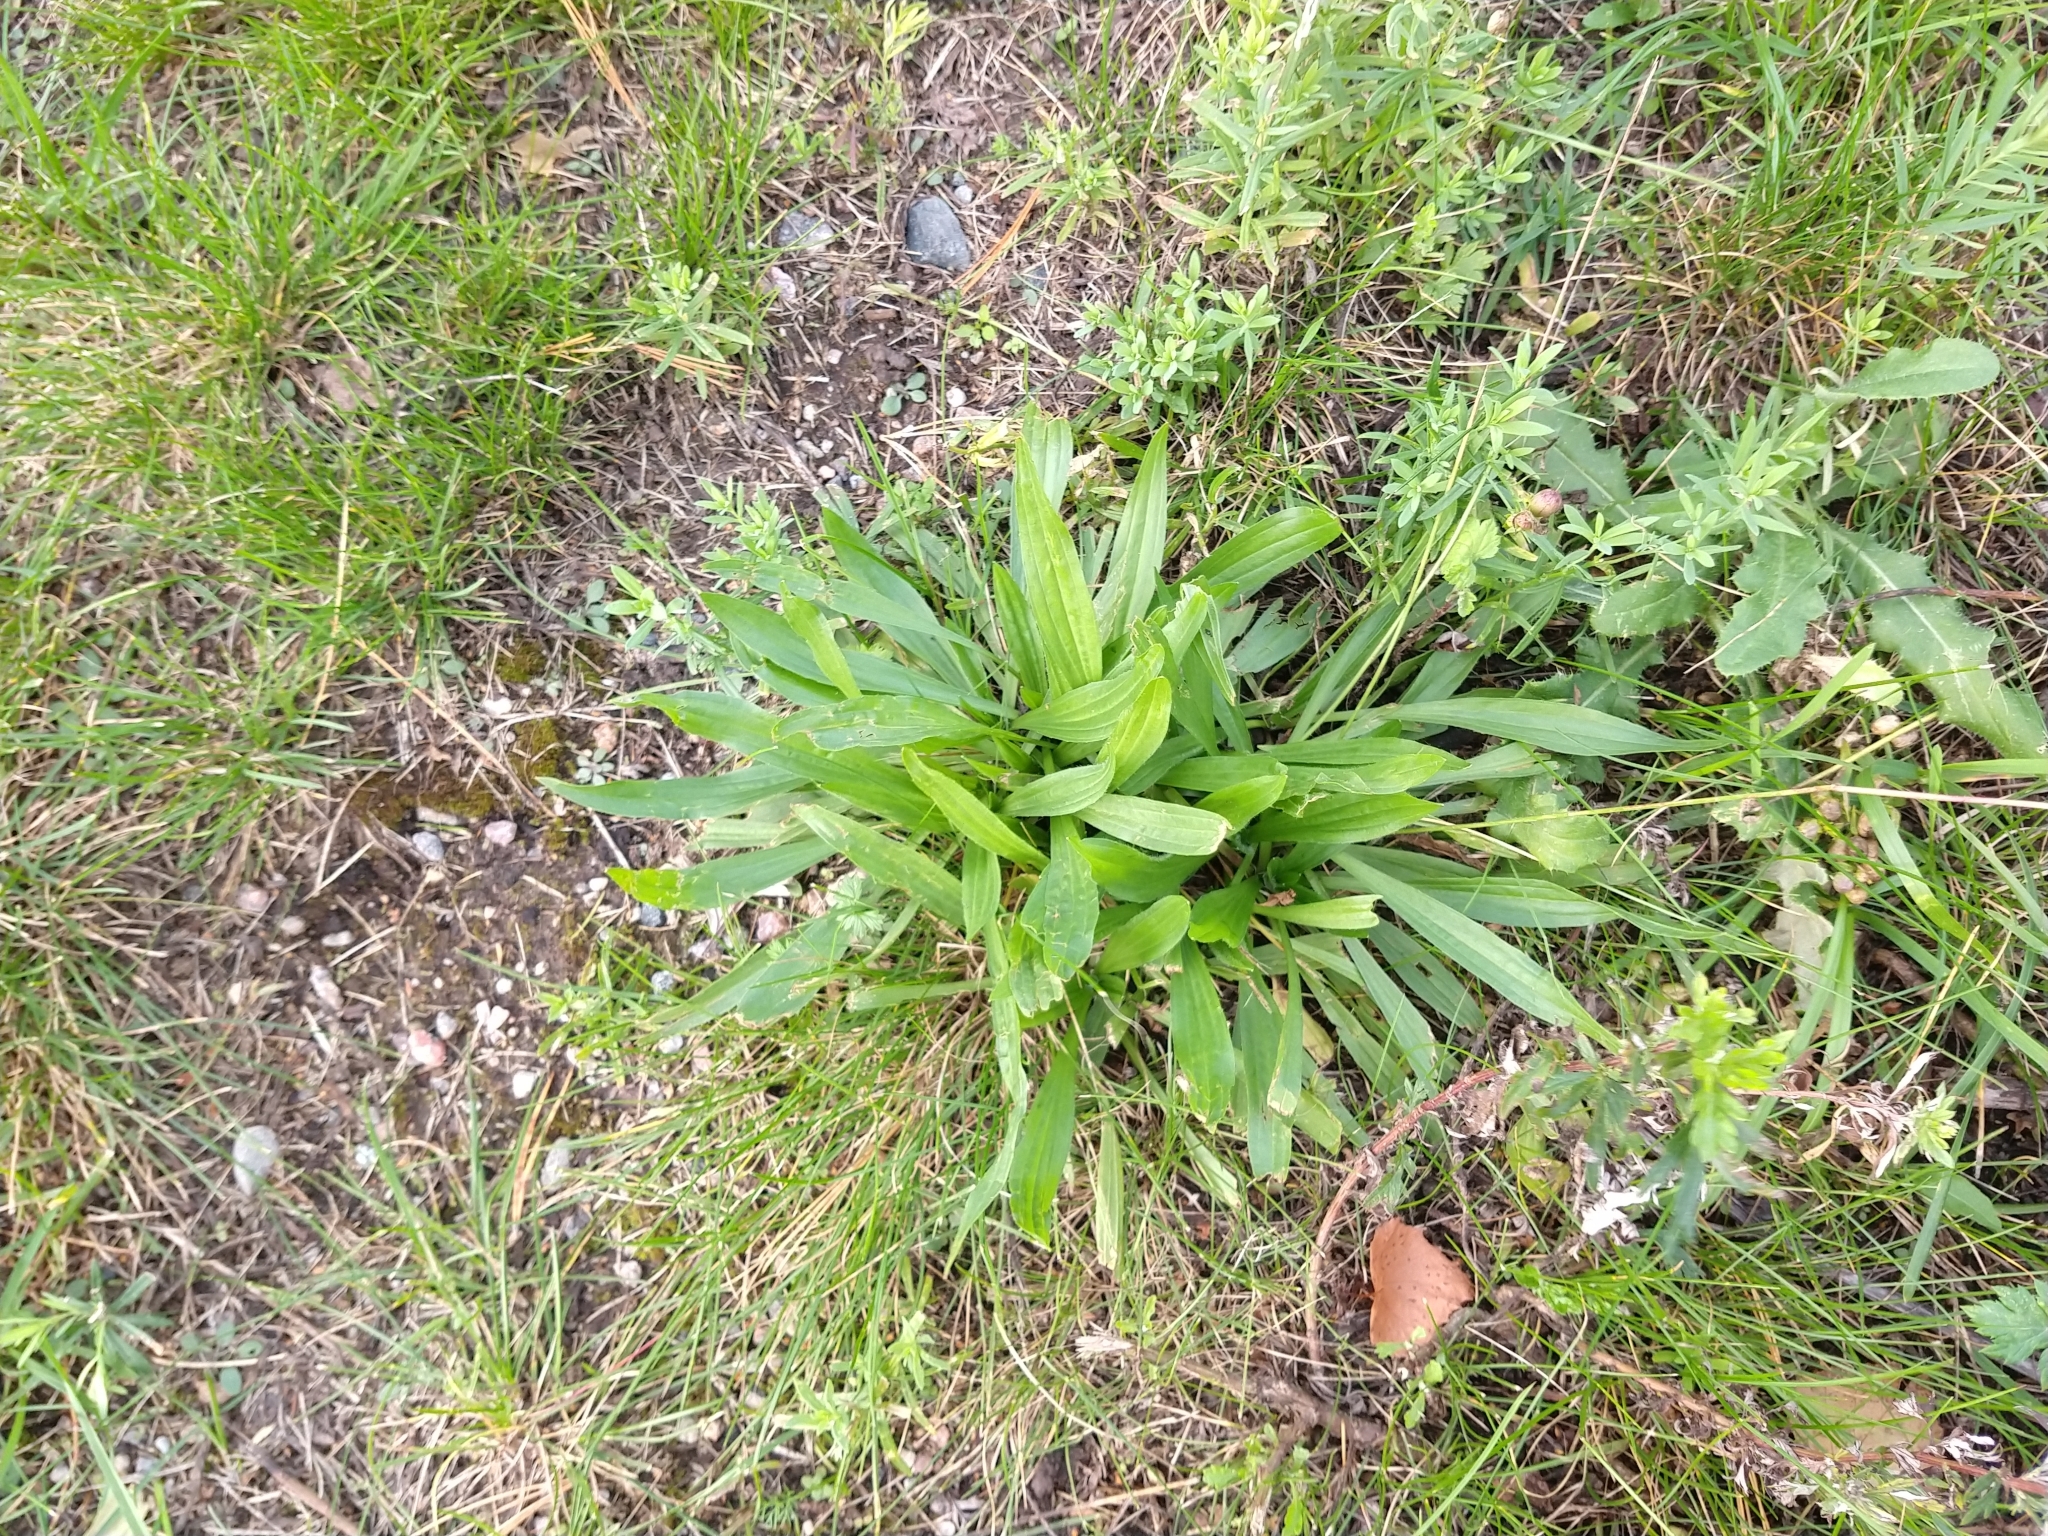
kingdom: Plantae
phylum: Tracheophyta
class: Magnoliopsida
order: Lamiales
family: Plantaginaceae
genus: Plantago
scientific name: Plantago lanceolata
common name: Ribwort plantain
